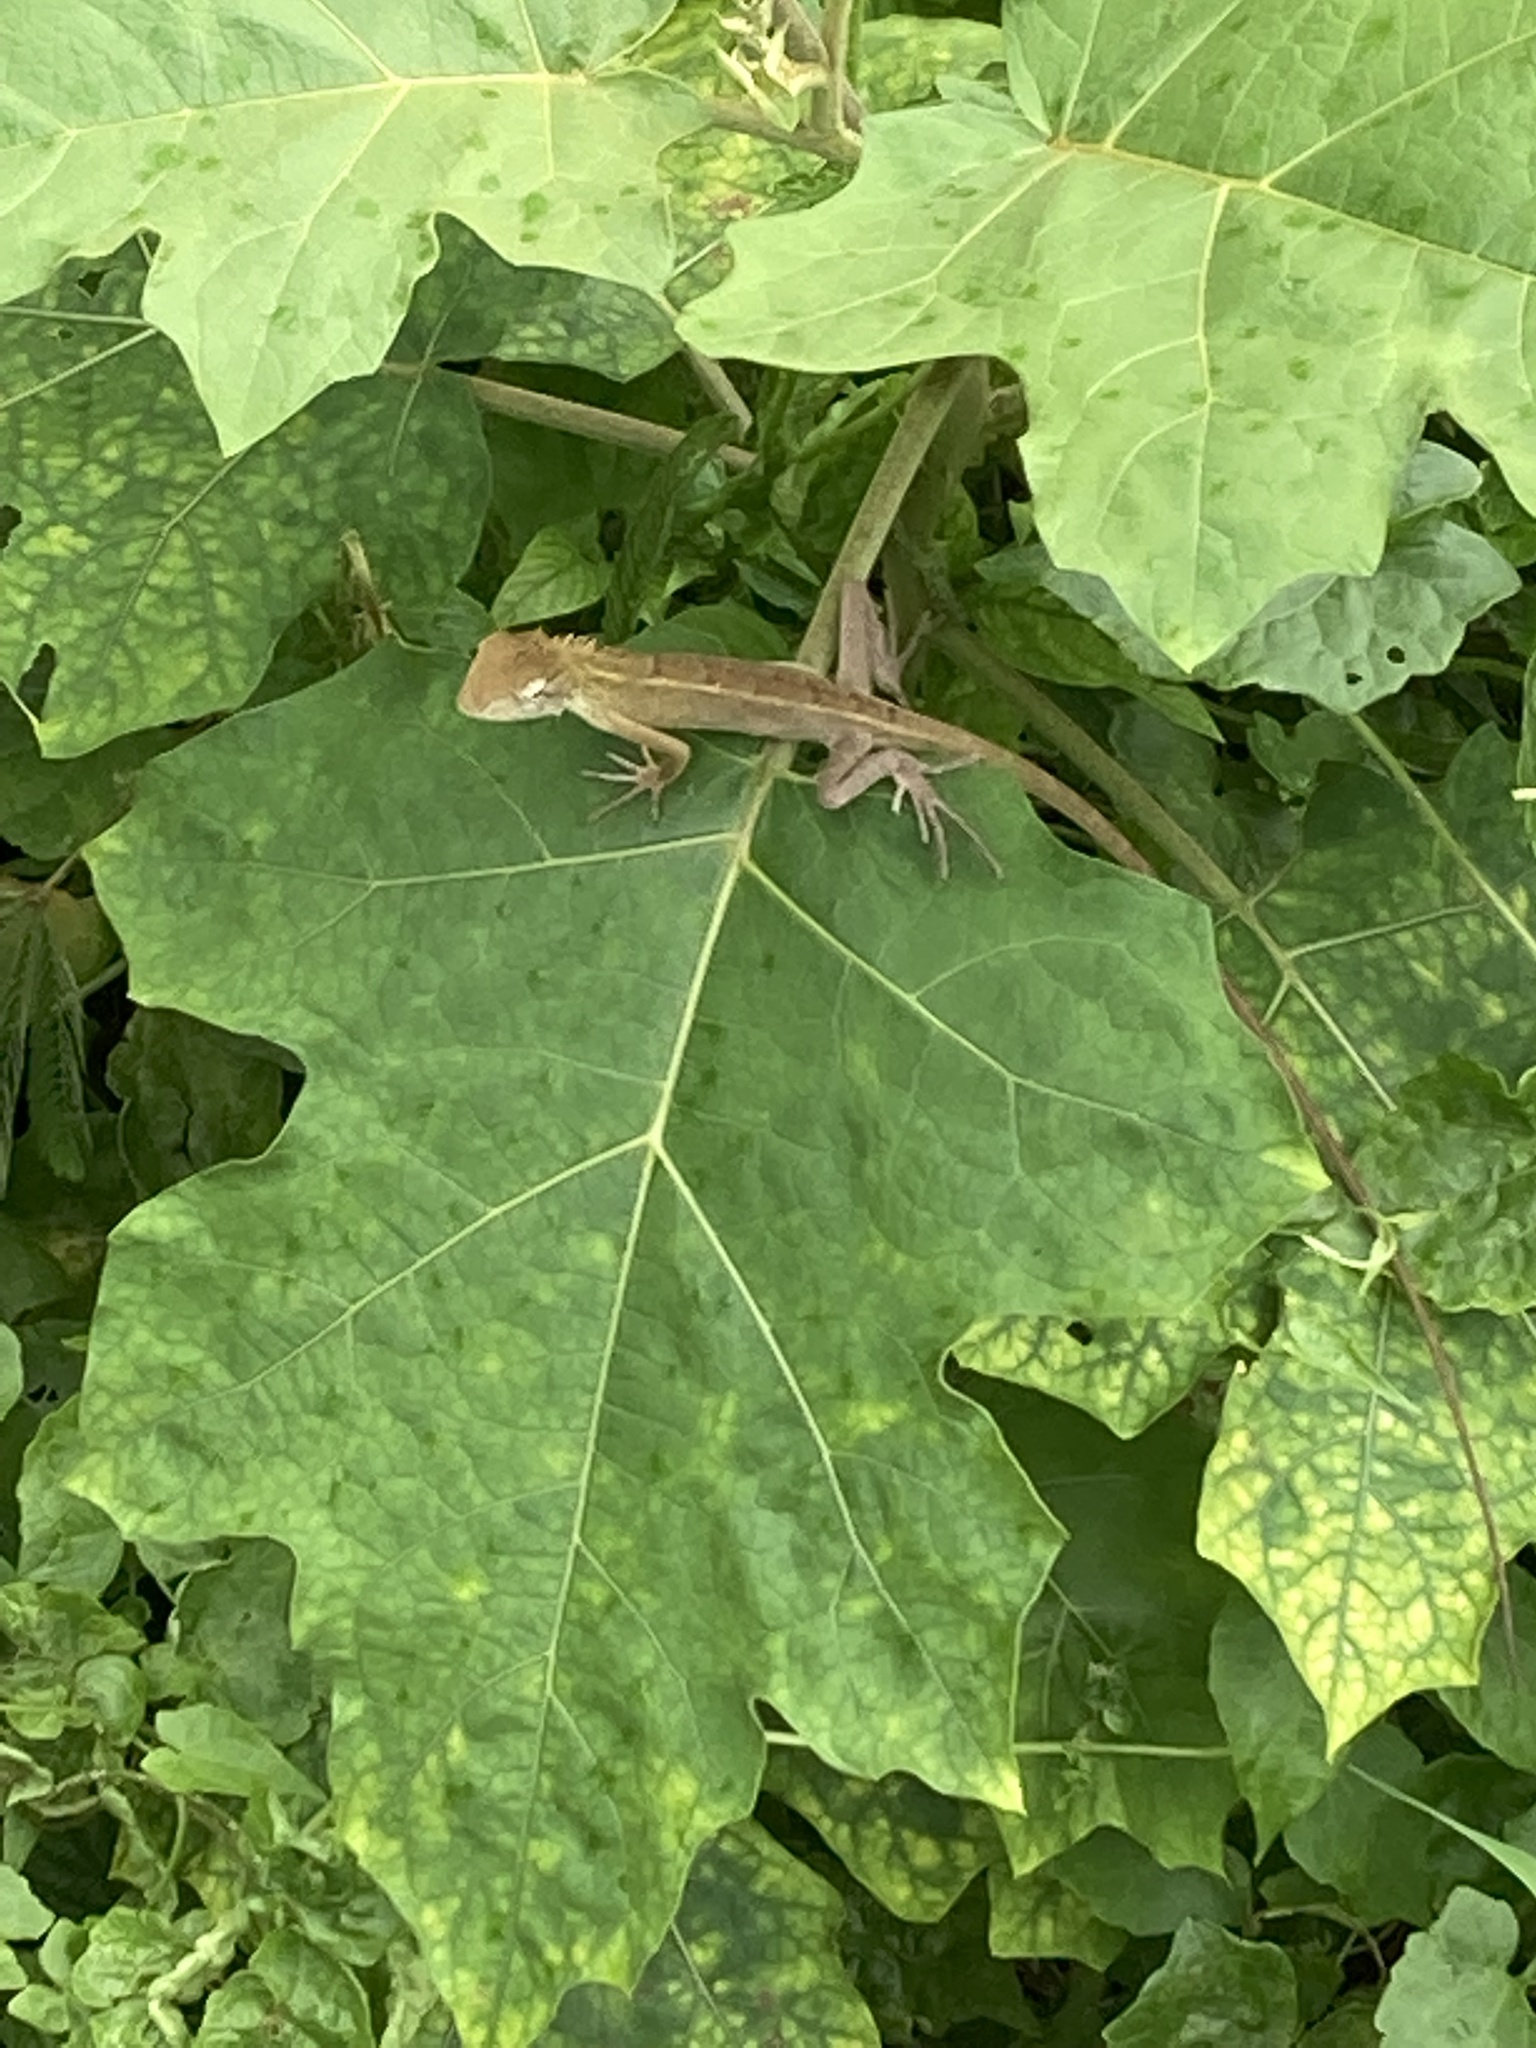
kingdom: Animalia
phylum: Chordata
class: Squamata
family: Agamidae
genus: Calotes
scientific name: Calotes versicolor
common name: Oriental garden lizard
